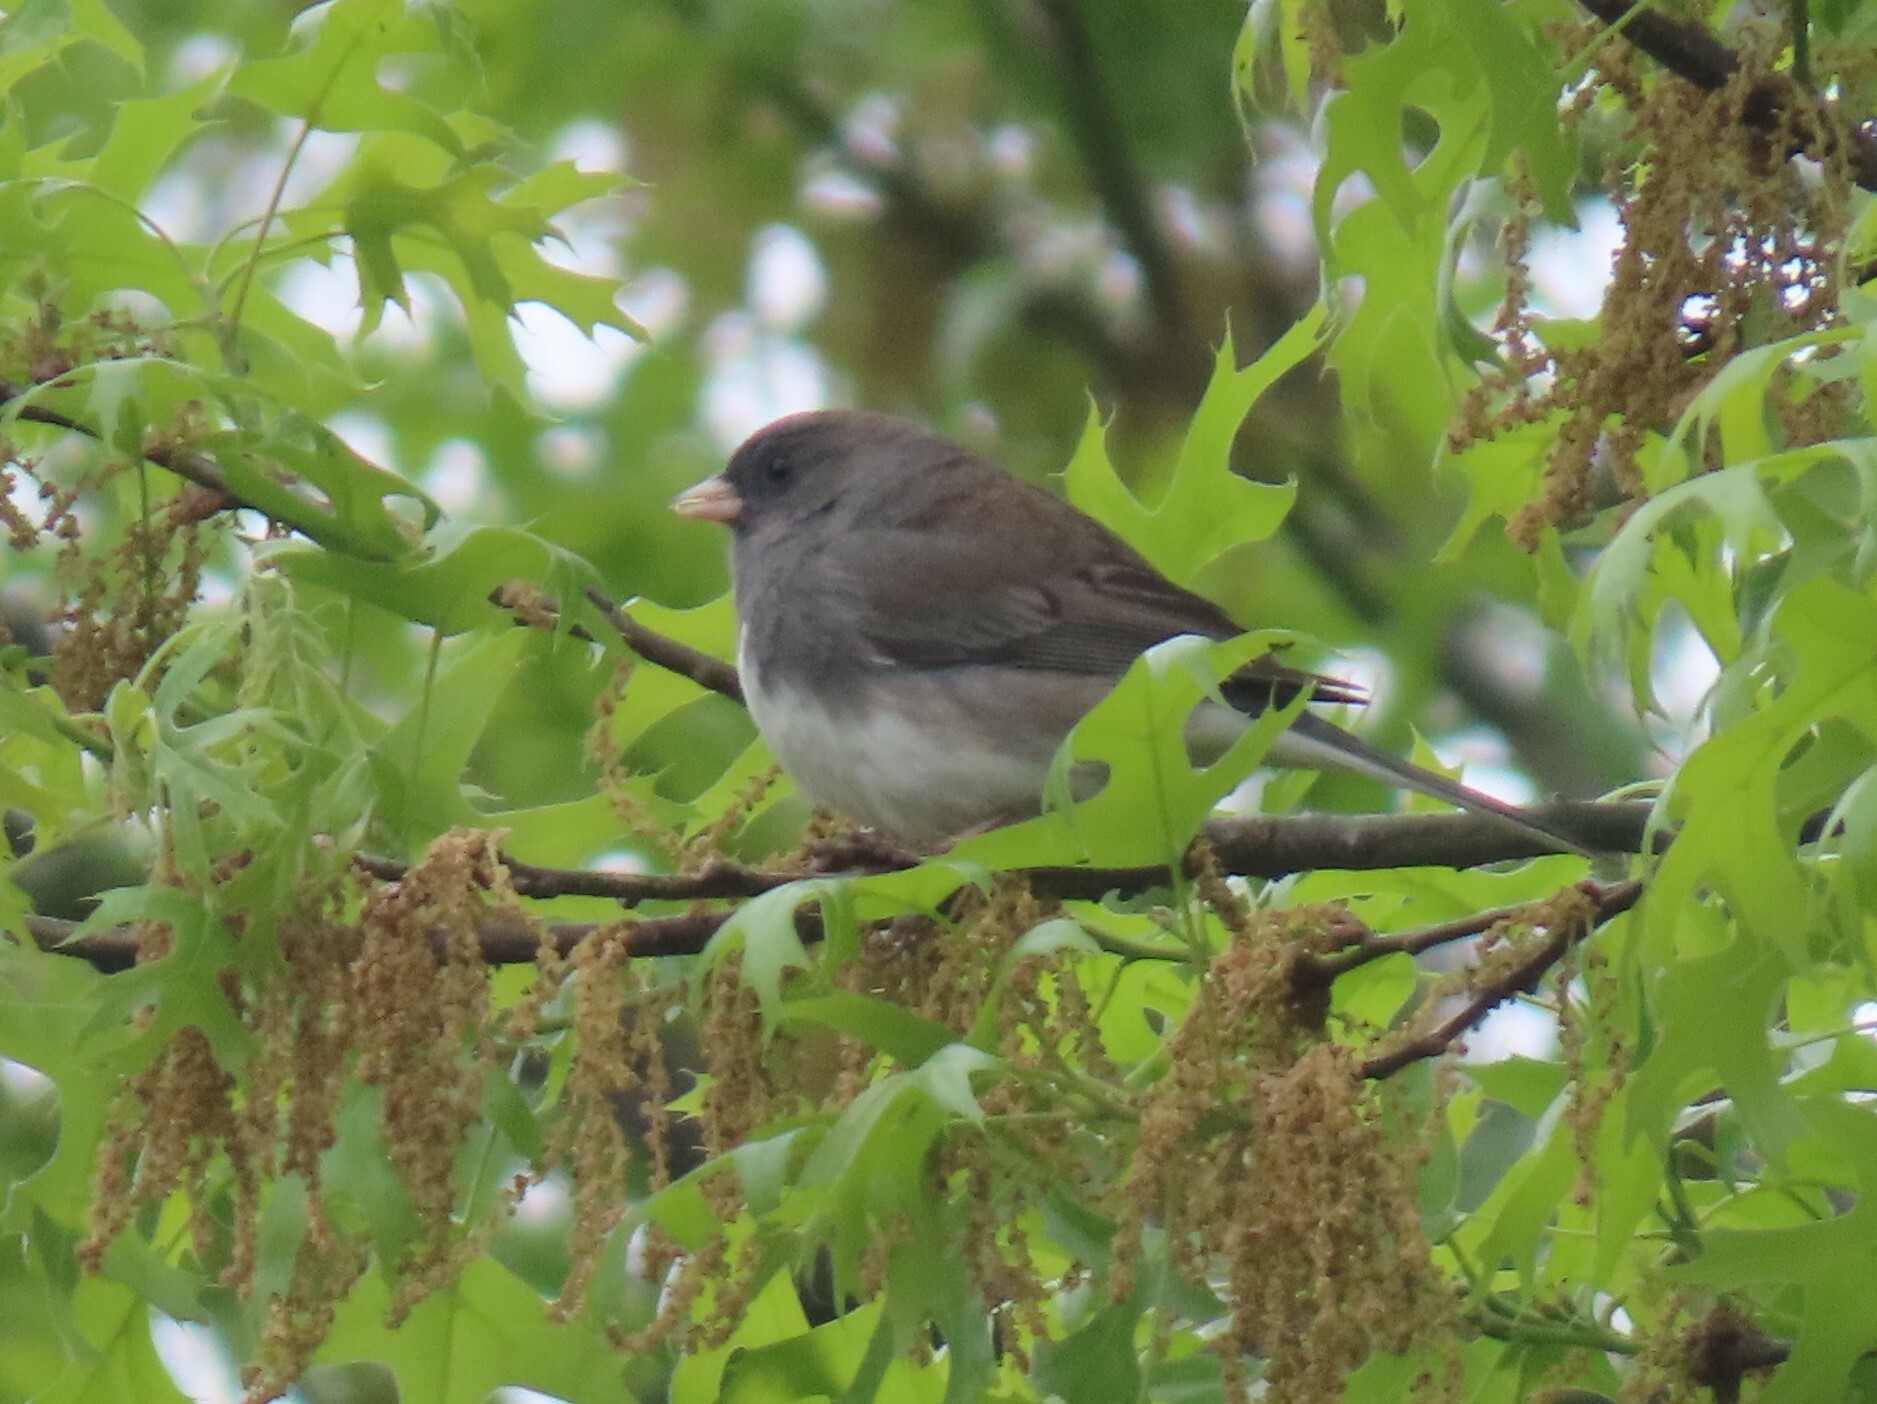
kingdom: Animalia
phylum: Chordata
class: Aves
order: Passeriformes
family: Passerellidae
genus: Junco
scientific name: Junco hyemalis
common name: Dark-eyed junco
